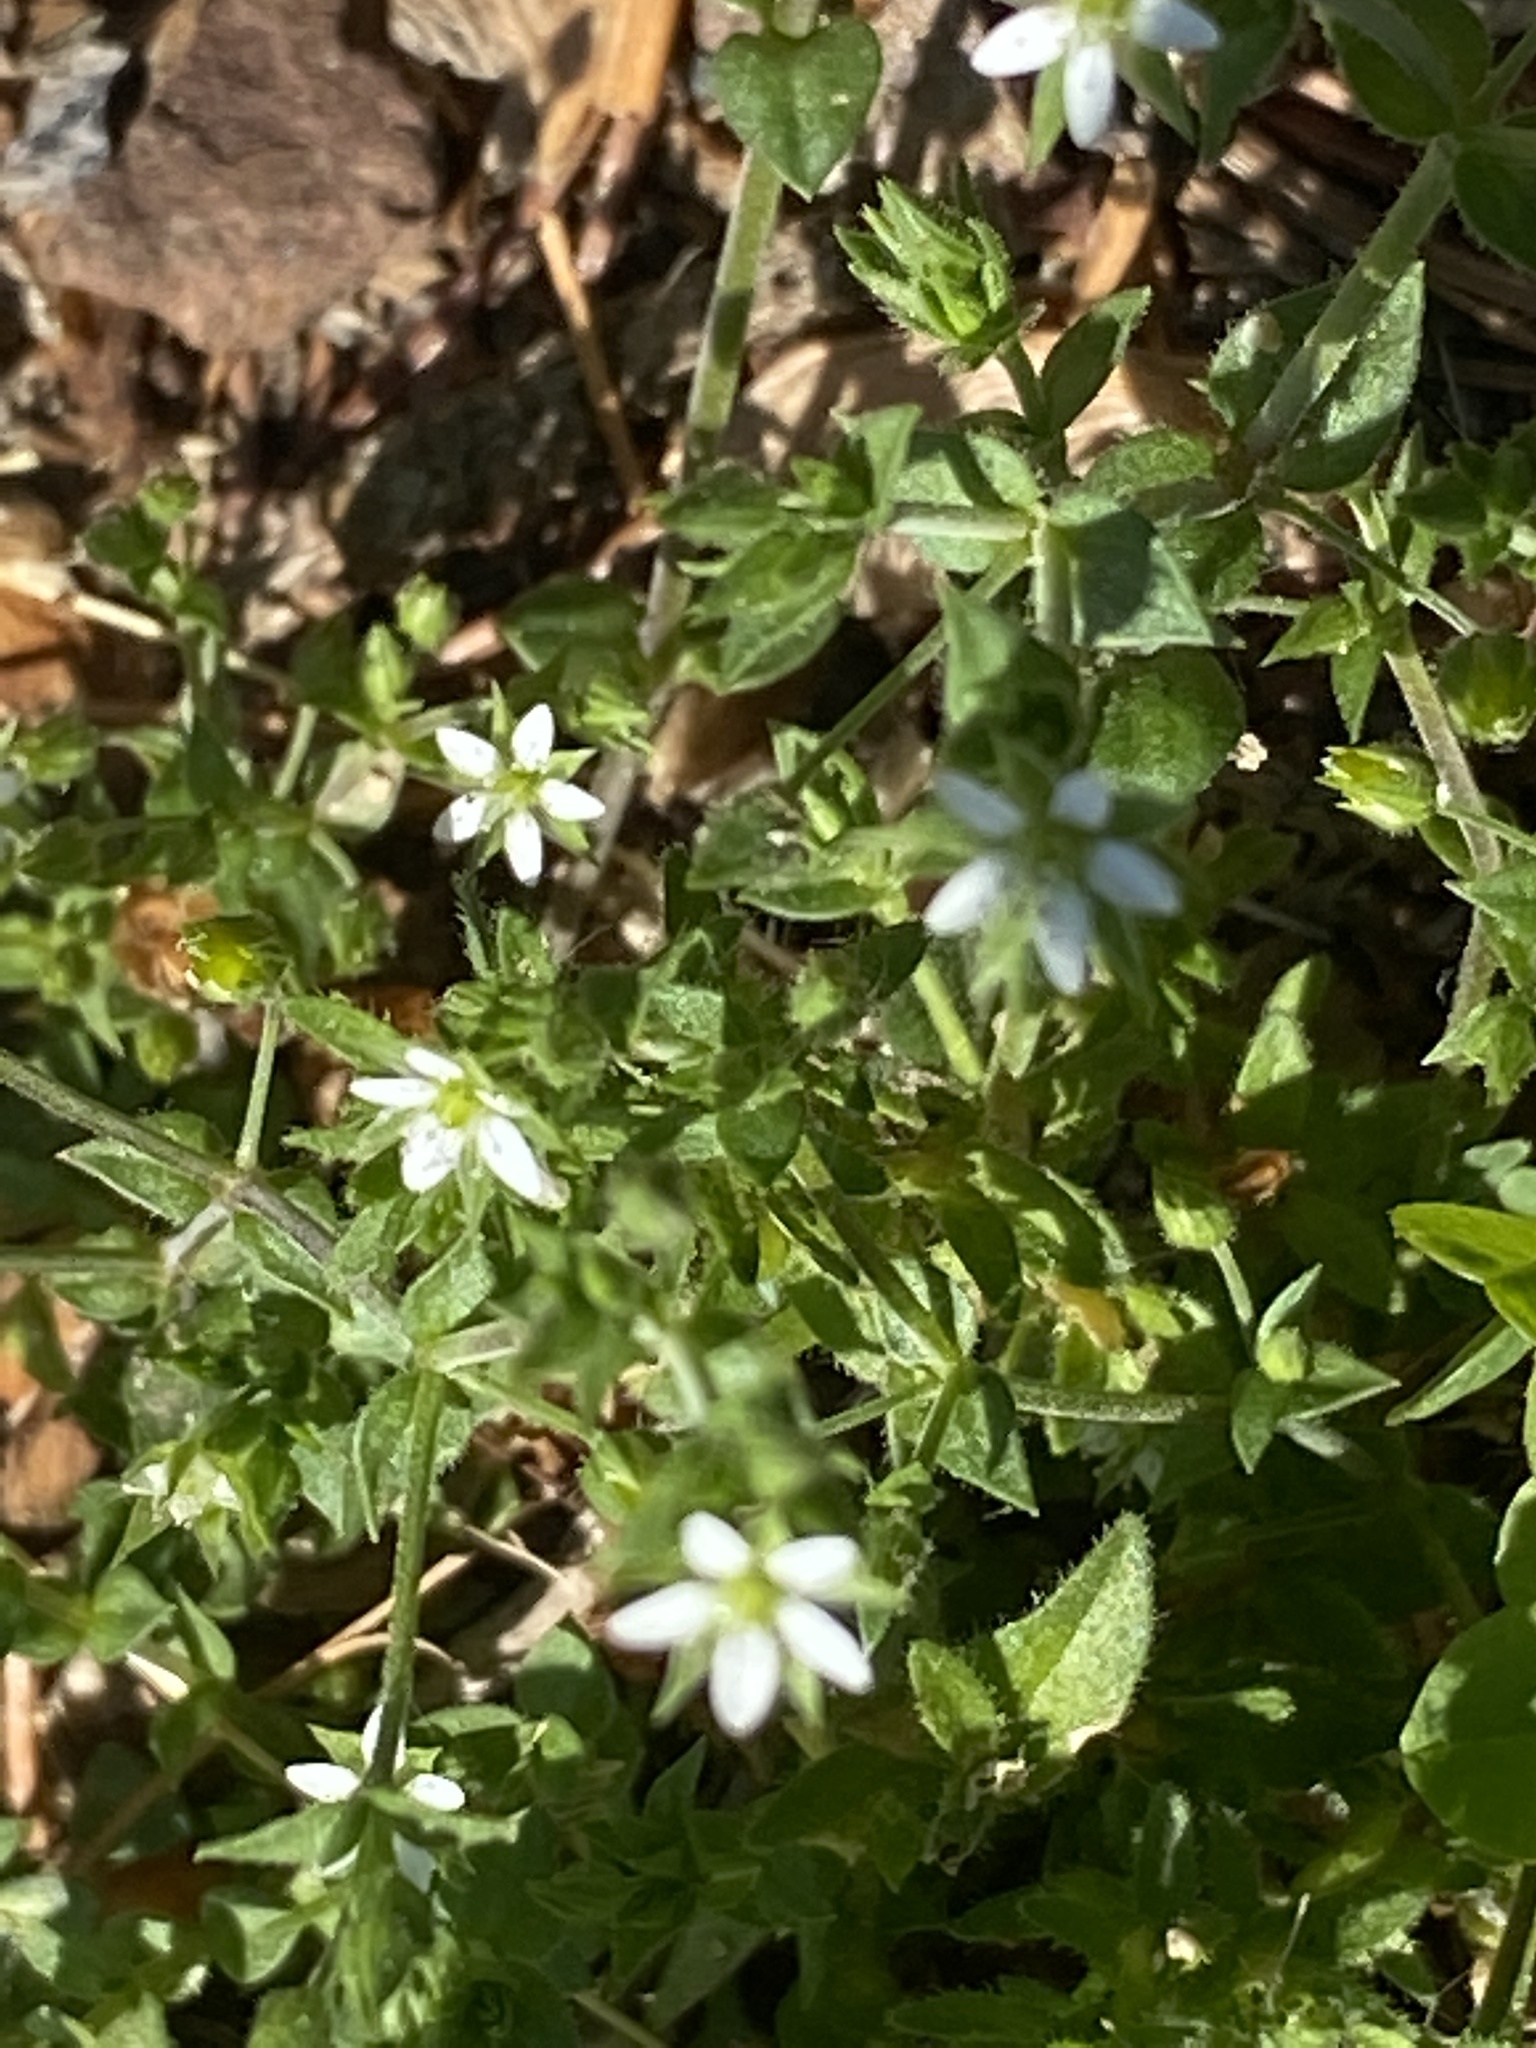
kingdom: Plantae
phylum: Tracheophyta
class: Magnoliopsida
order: Caryophyllales
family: Caryophyllaceae
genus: Arenaria
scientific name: Arenaria serpyllifolia
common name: Thyme-leaved sandwort
